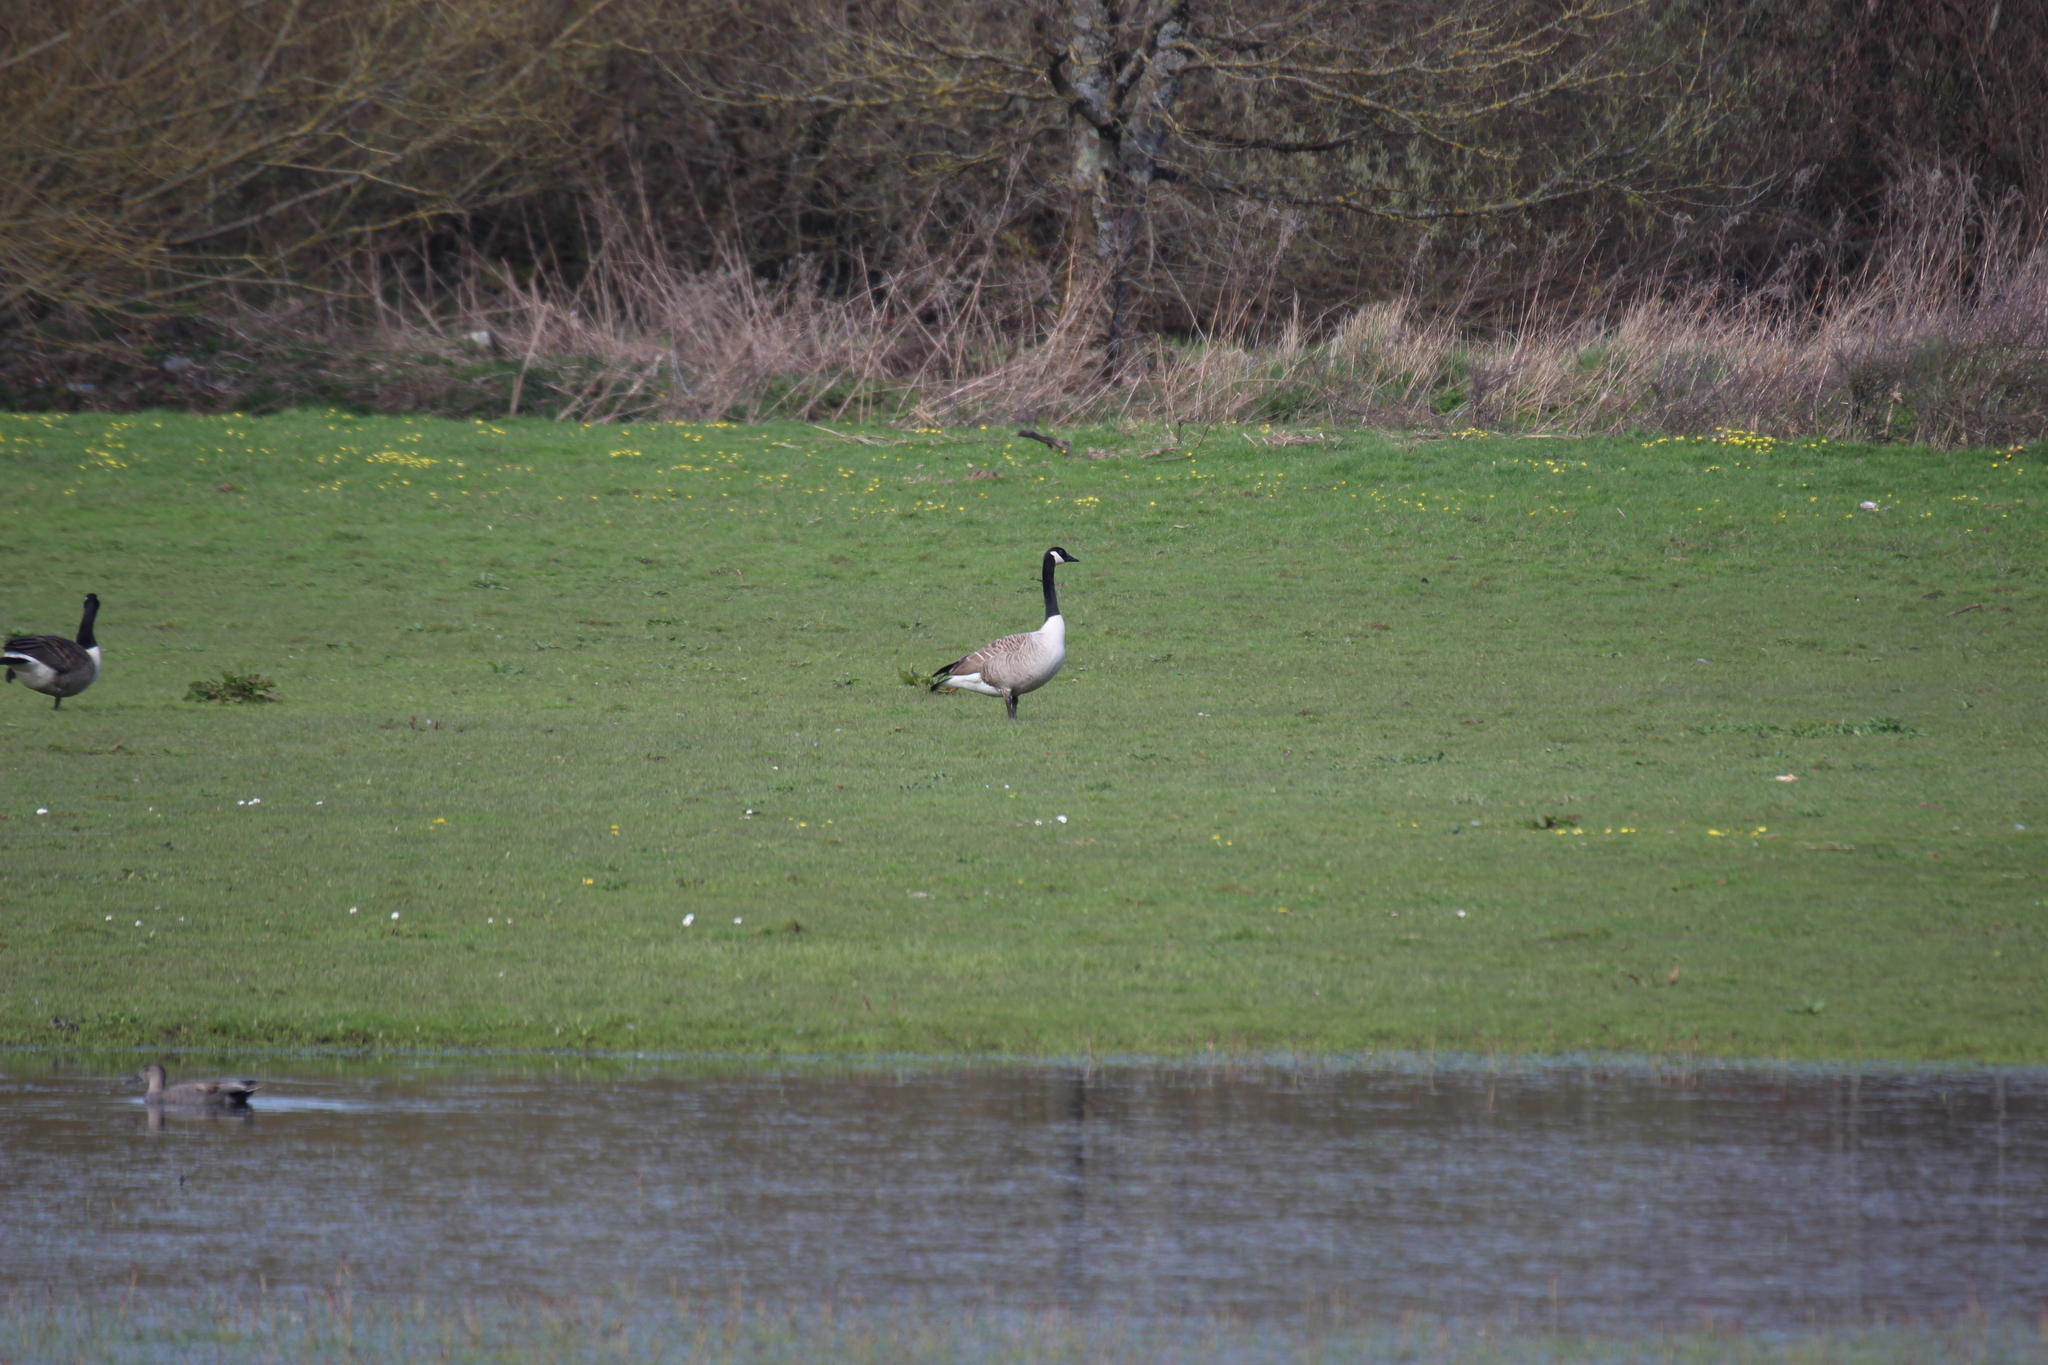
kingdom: Animalia
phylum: Chordata
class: Aves
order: Anseriformes
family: Anatidae
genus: Branta
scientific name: Branta canadensis
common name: Canada goose
